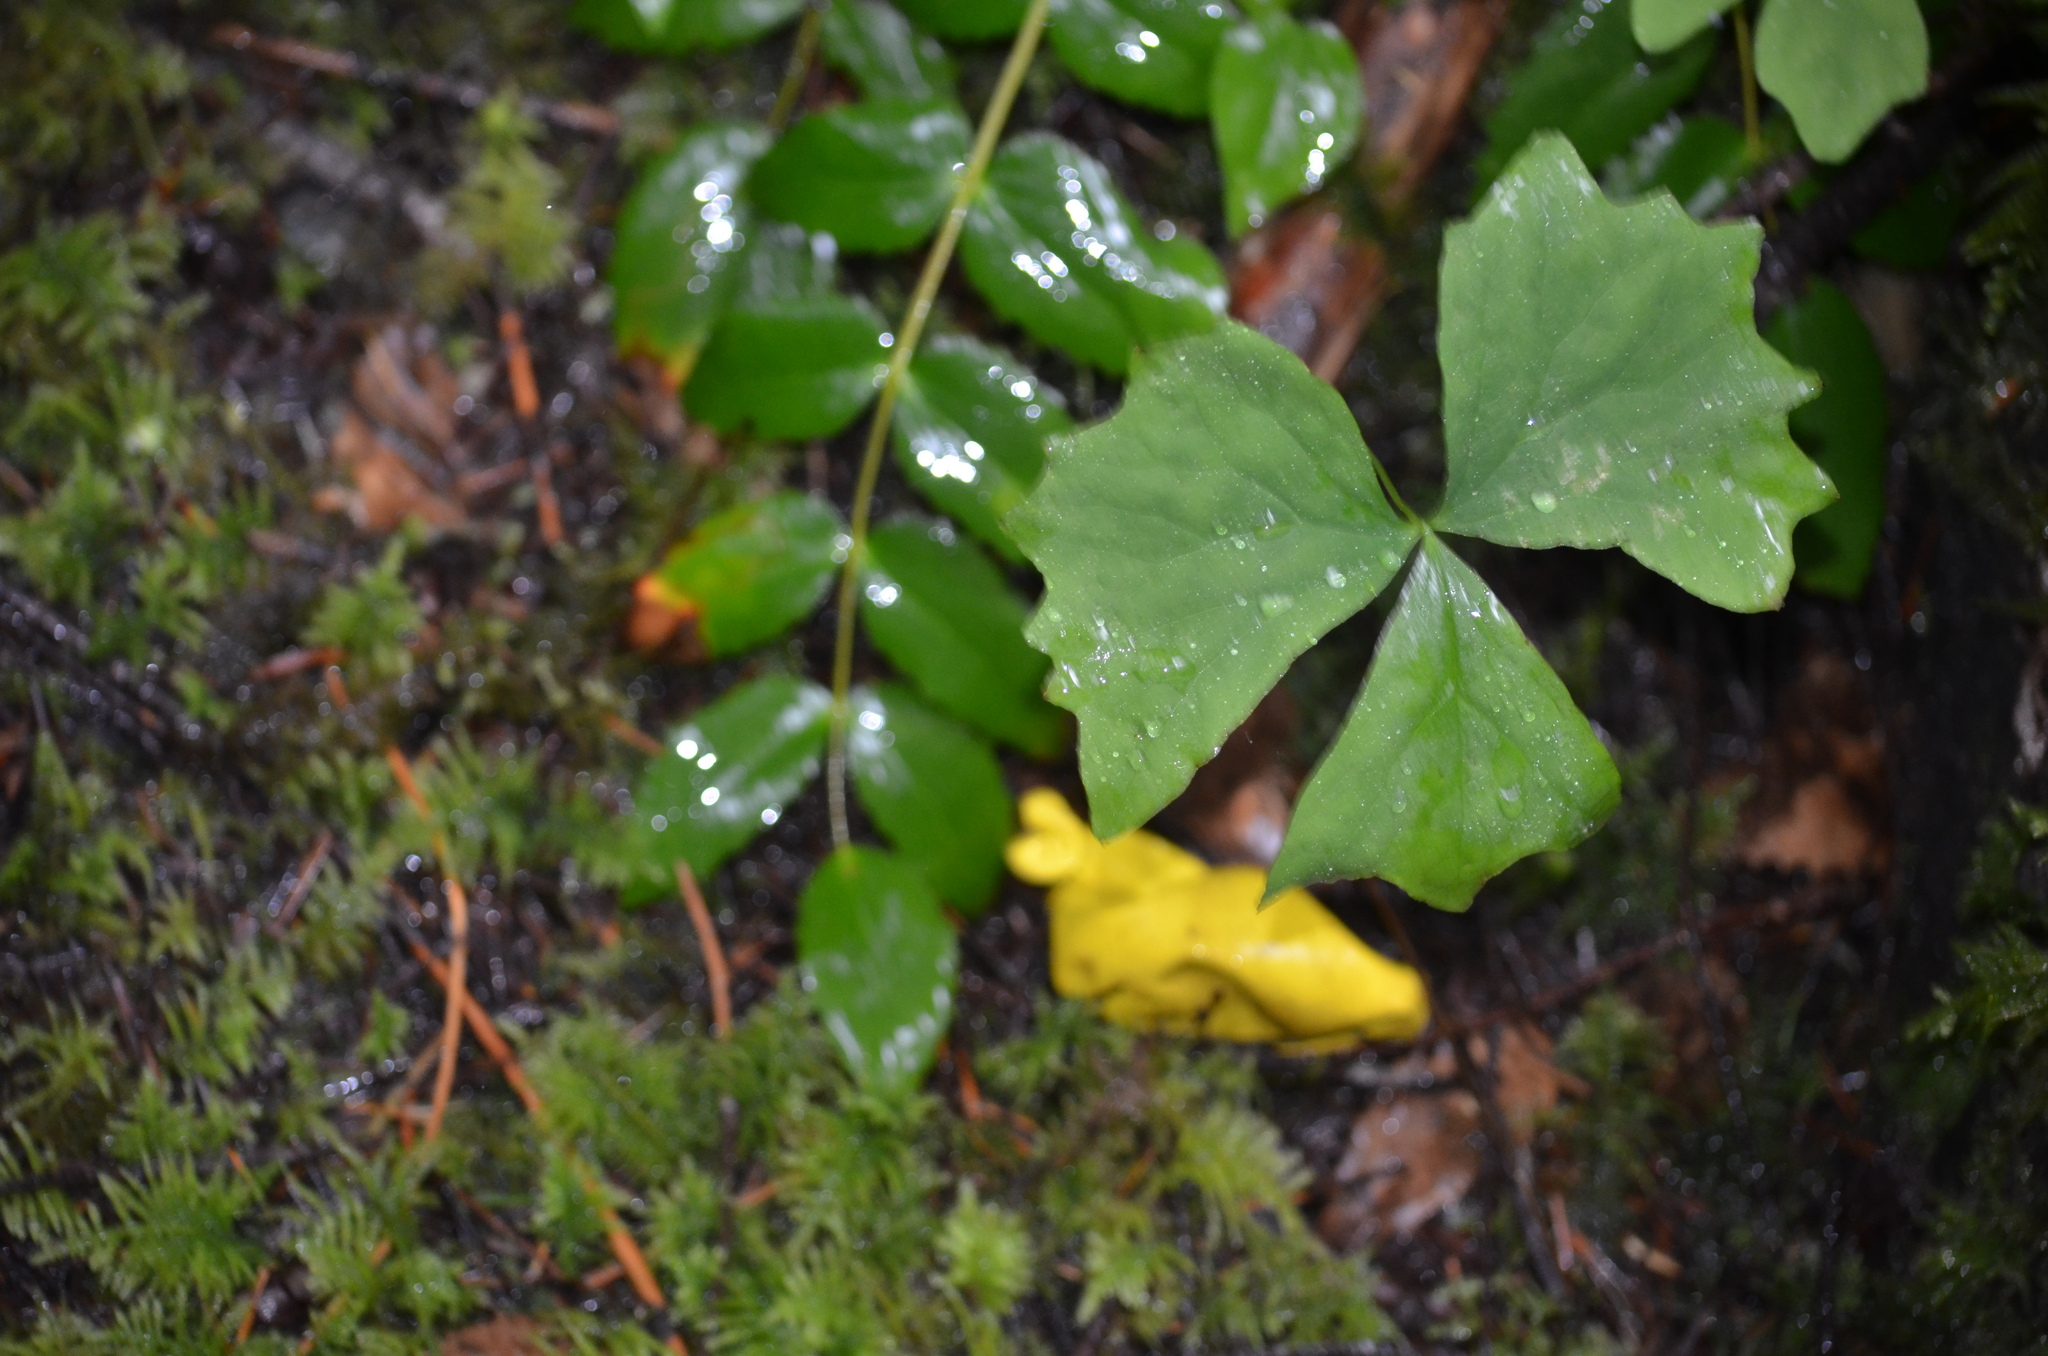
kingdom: Plantae
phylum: Tracheophyta
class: Magnoliopsida
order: Ranunculales
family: Berberidaceae
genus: Achlys
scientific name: Achlys triphylla
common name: Vanilla-leaf
